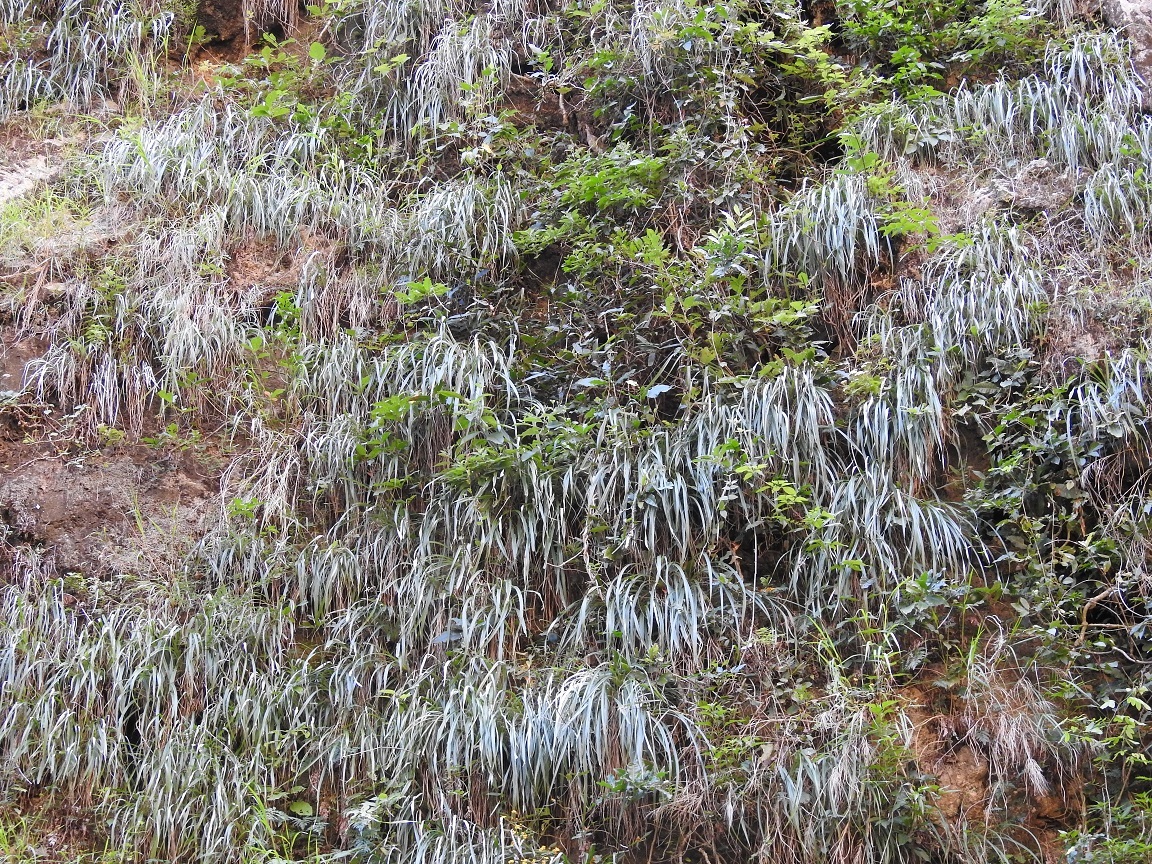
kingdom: Plantae
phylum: Tracheophyta
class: Liliopsida
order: Poales
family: Bromeliaceae
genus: Pitcairnia
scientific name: Pitcairnia breedlovei
